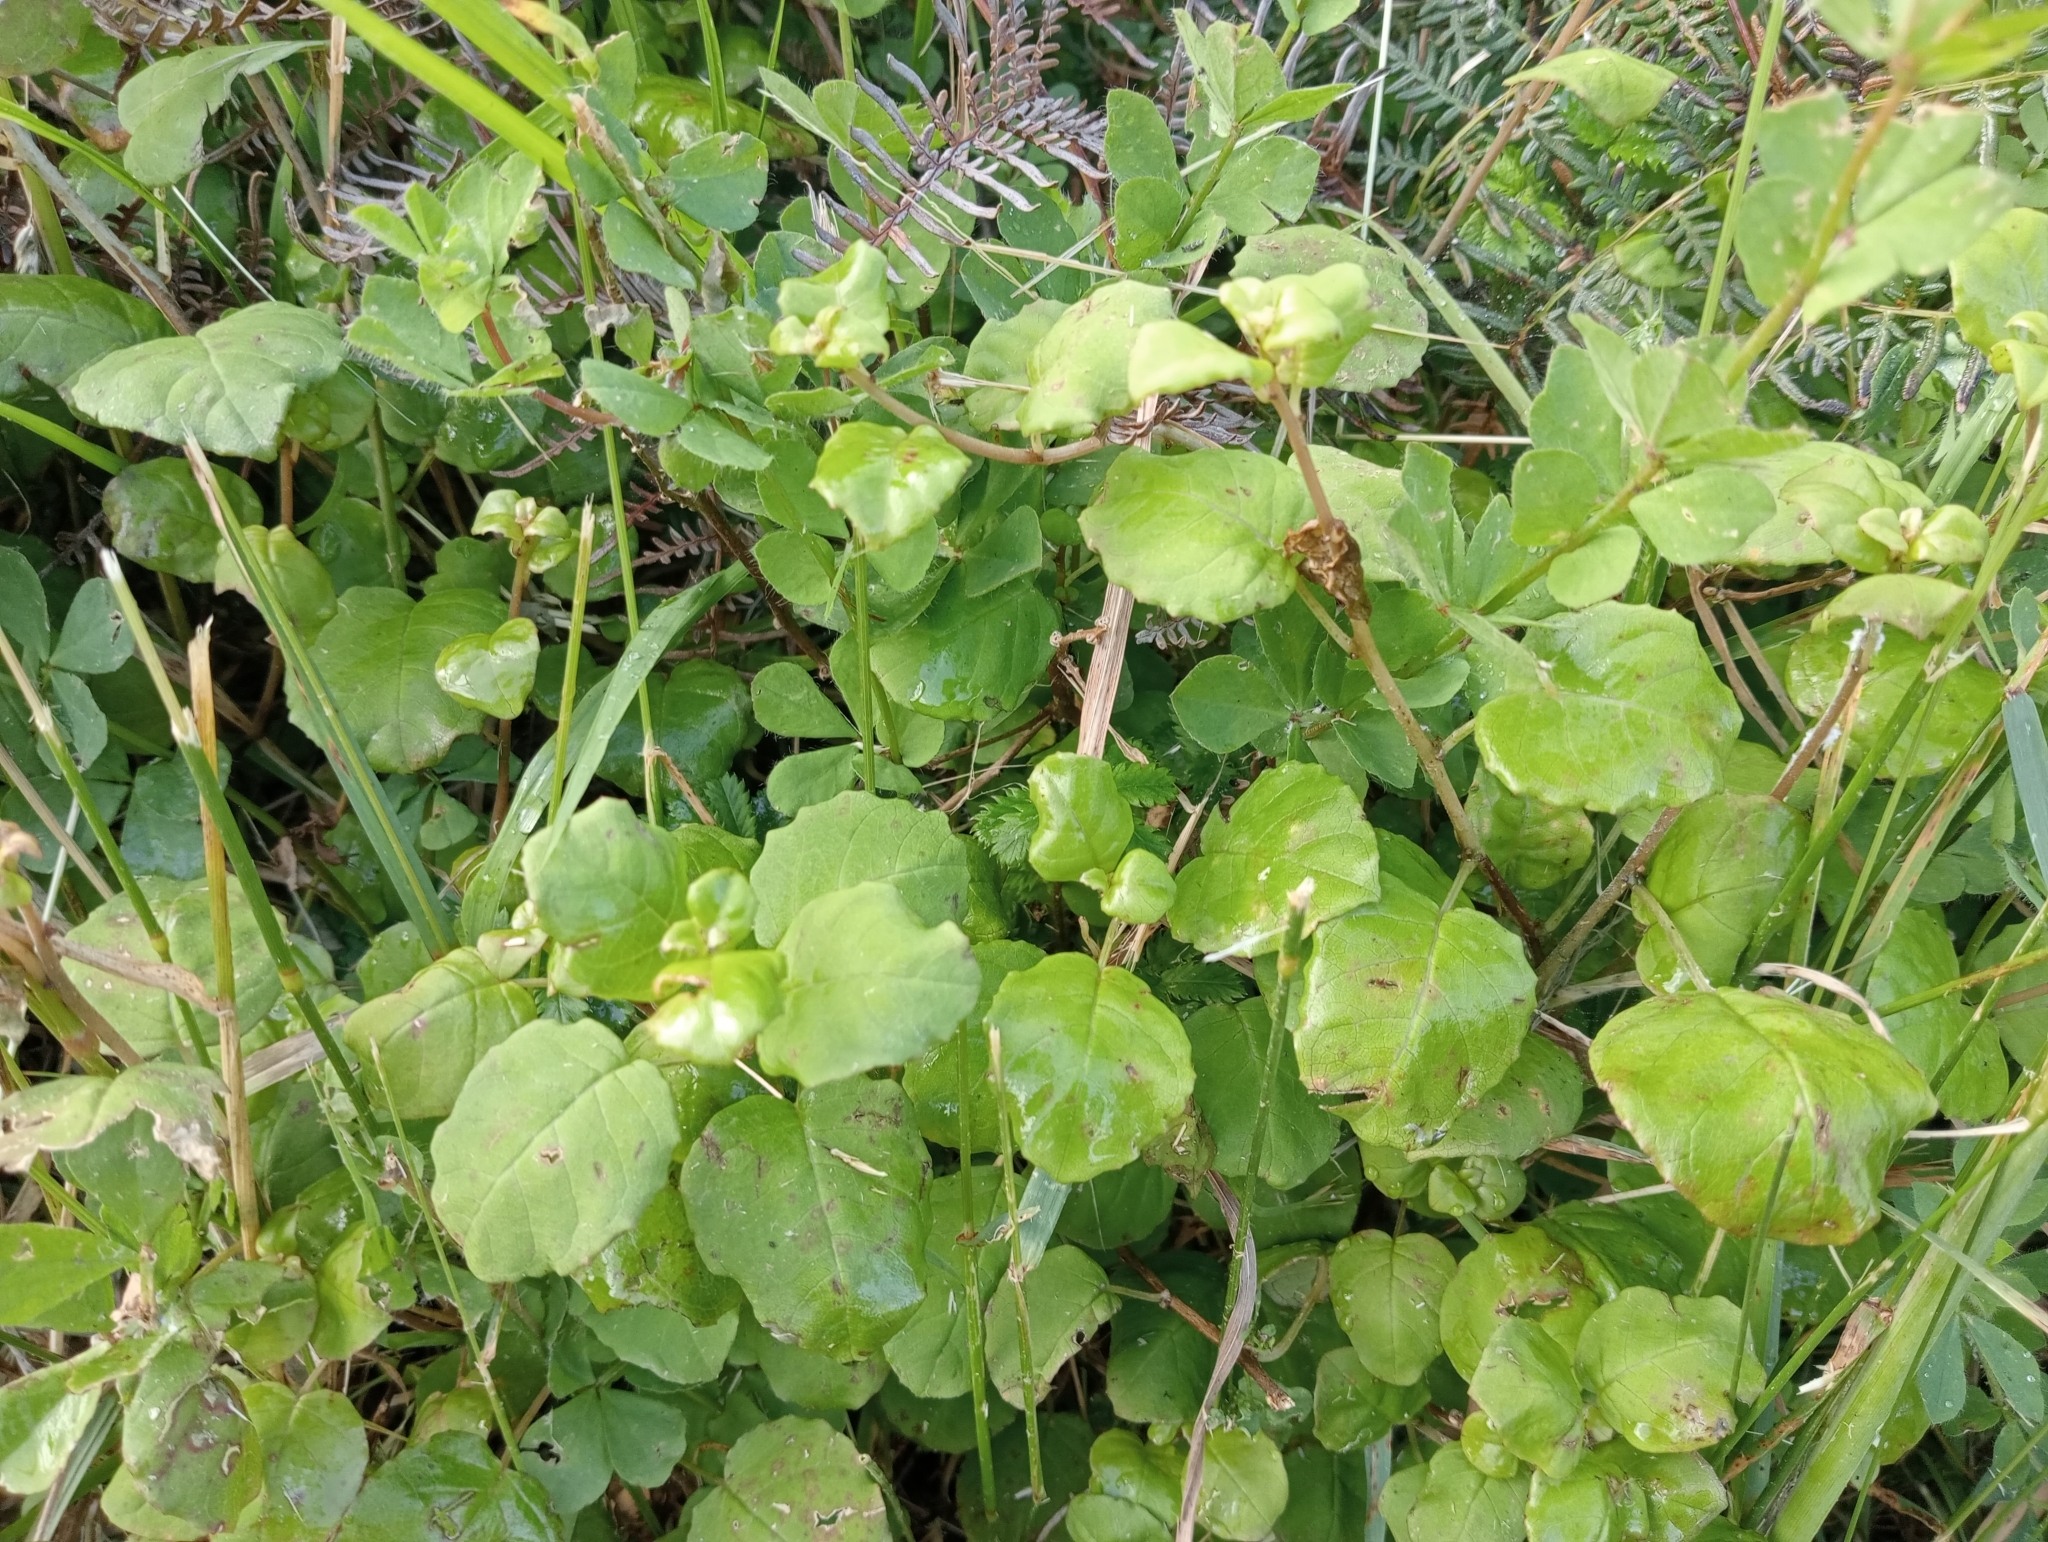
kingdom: Plantae
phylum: Tracheophyta
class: Magnoliopsida
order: Myrtales
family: Onagraceae
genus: Fuchsia
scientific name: Fuchsia perscandens
